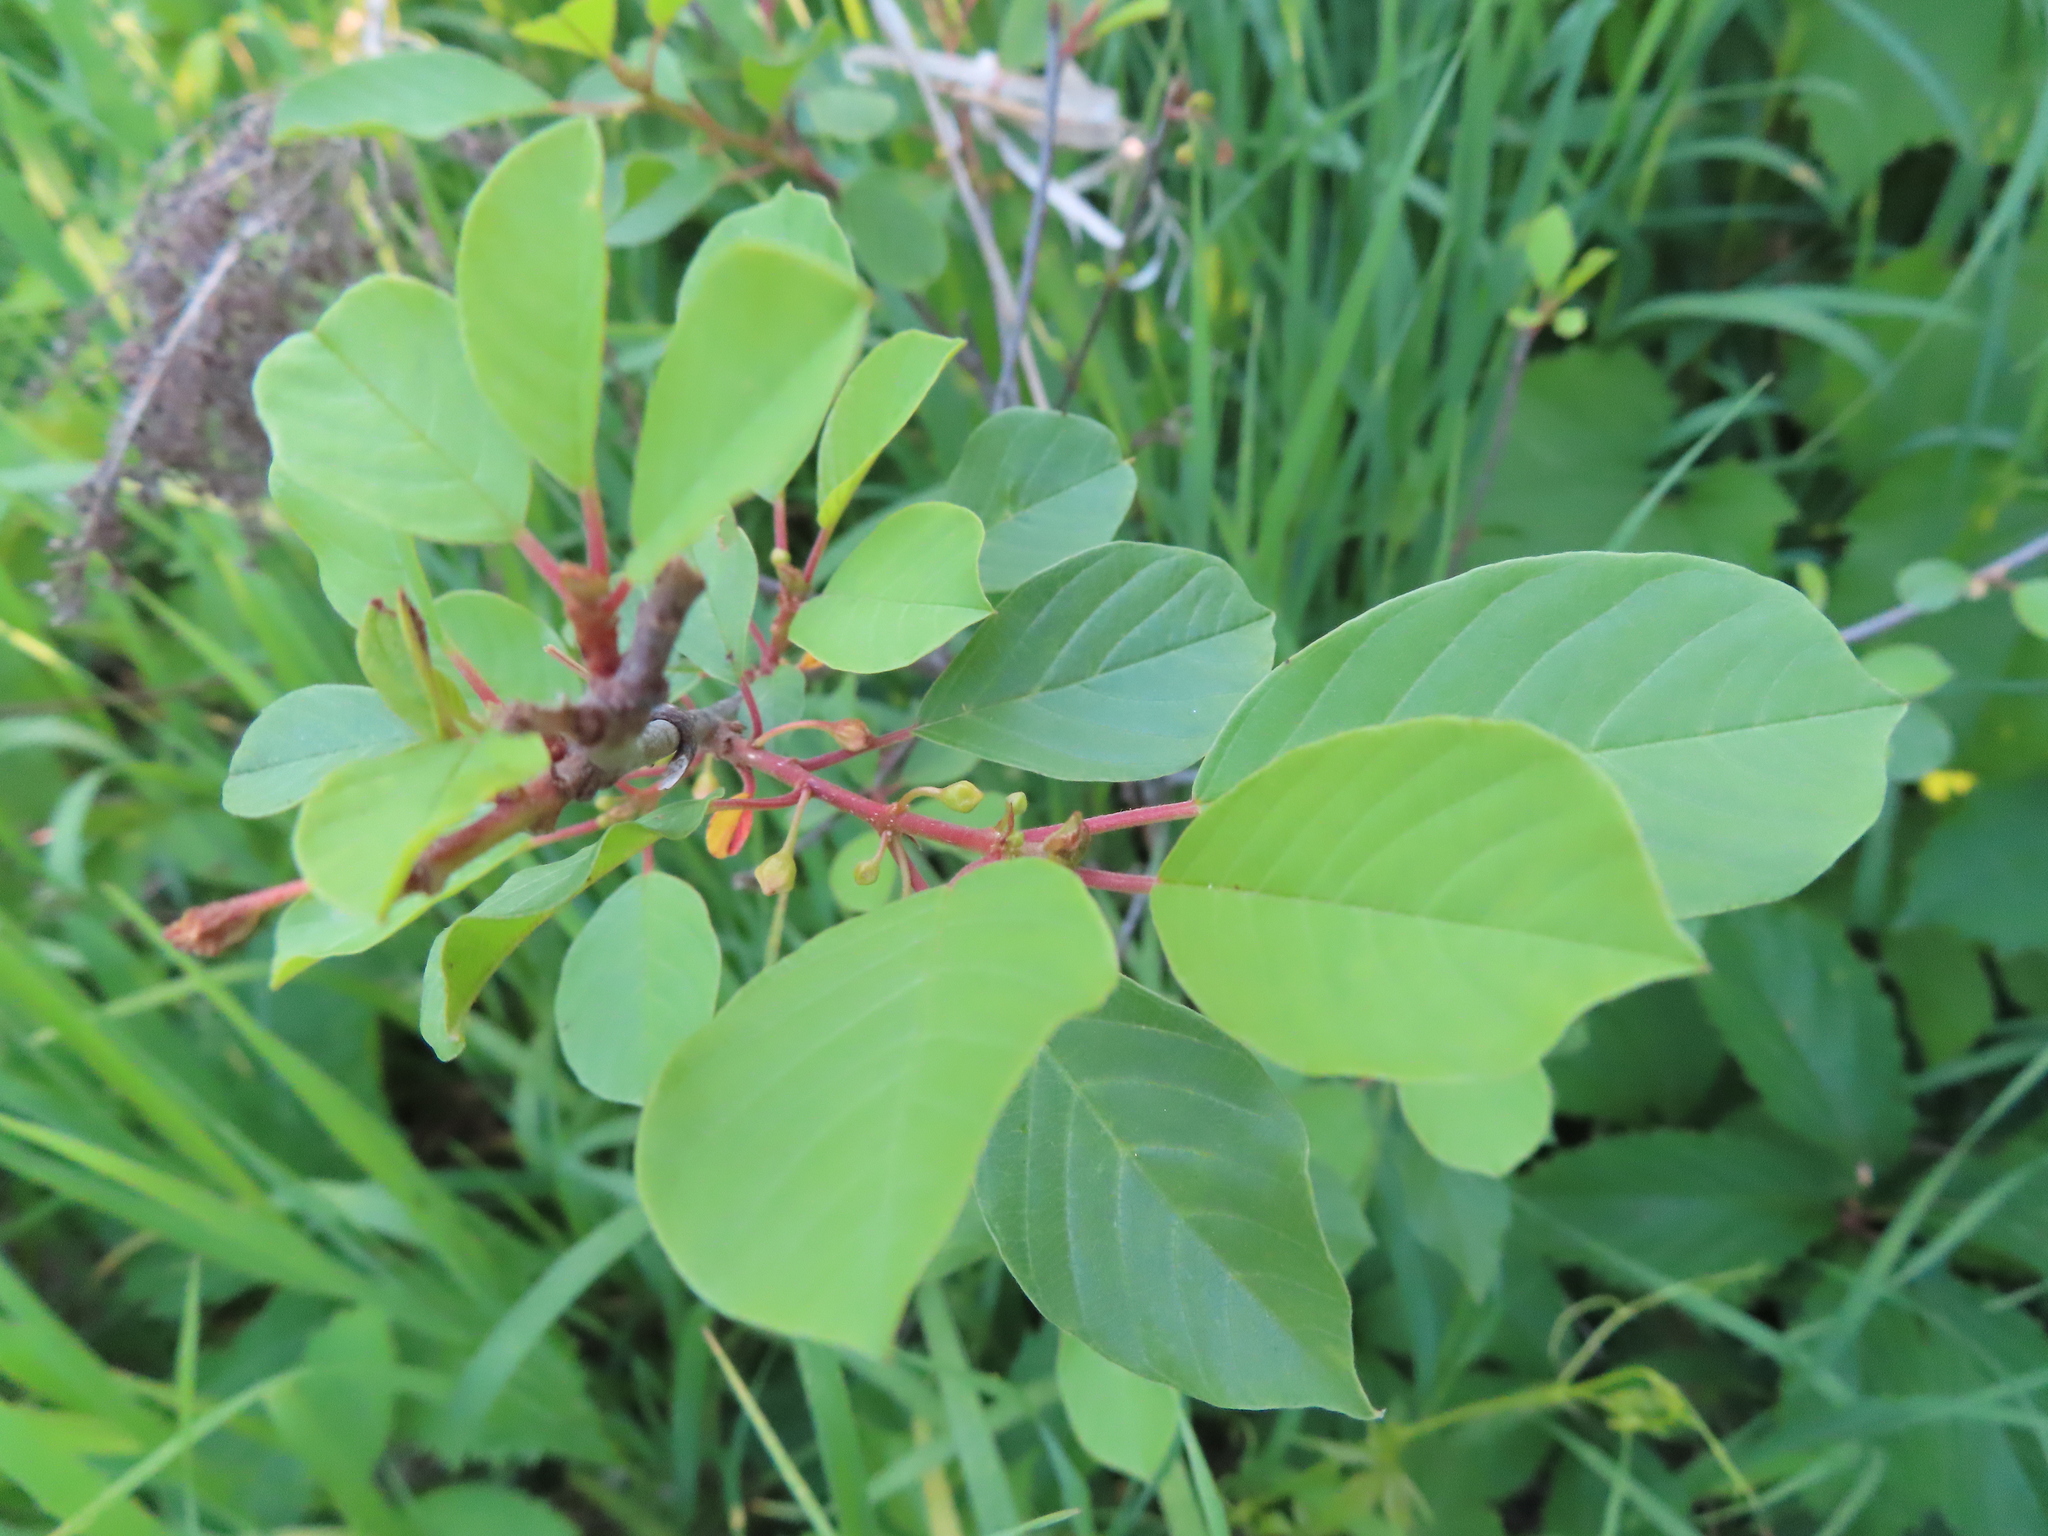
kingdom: Plantae
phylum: Tracheophyta
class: Magnoliopsida
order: Rosales
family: Rhamnaceae
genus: Frangula
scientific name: Frangula alnus
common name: Alder buckthorn
